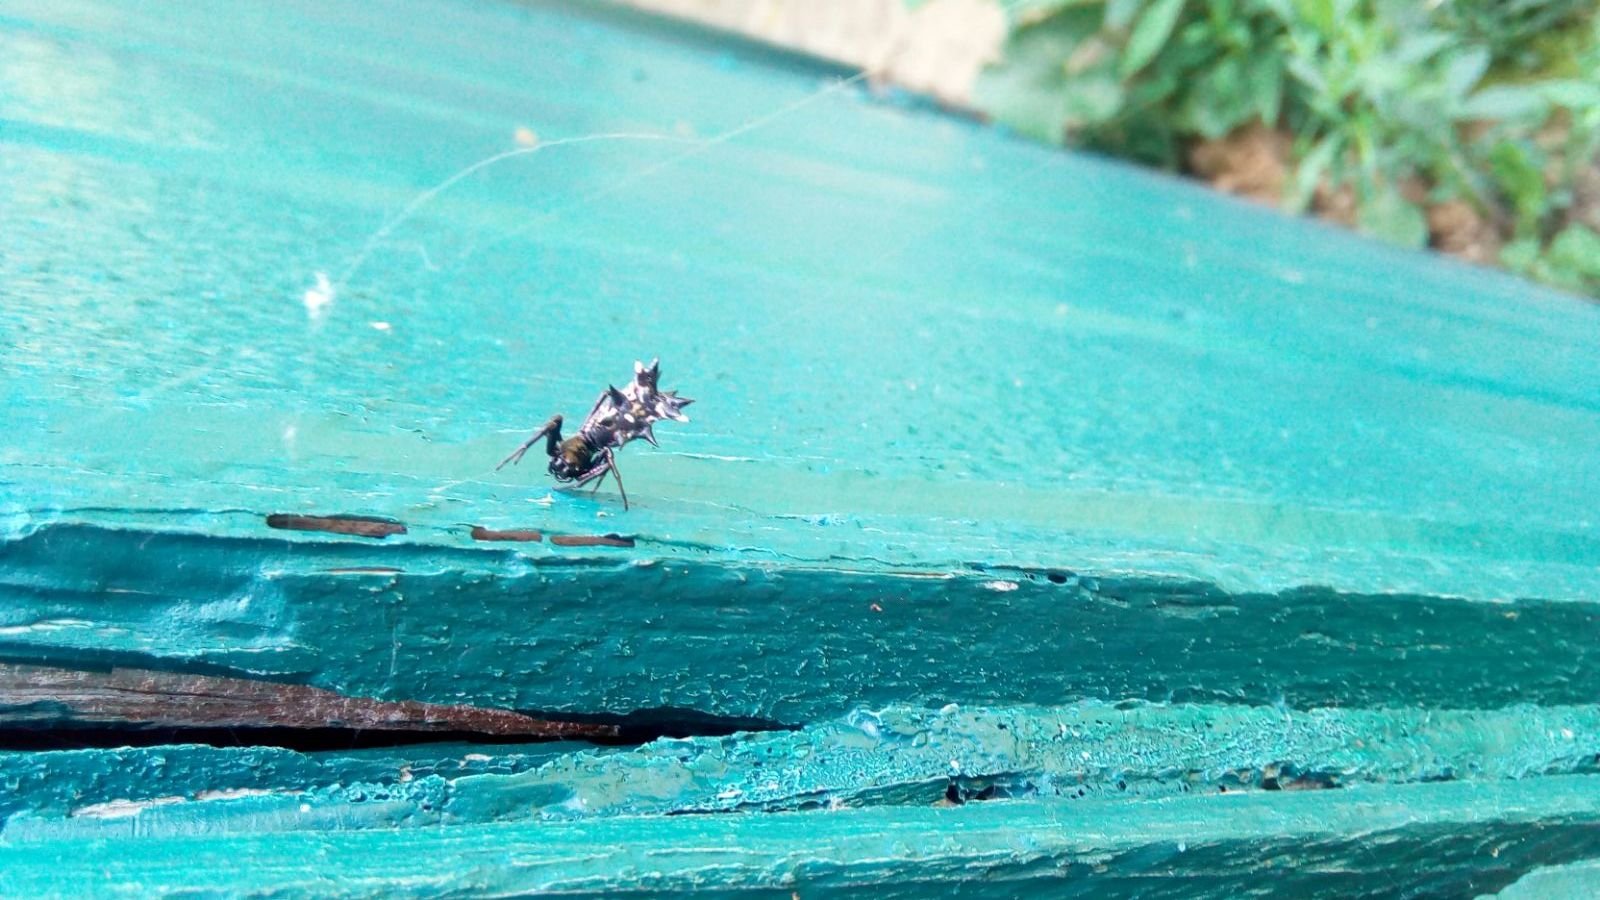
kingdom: Animalia
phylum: Arthropoda
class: Arachnida
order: Araneae
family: Araneidae
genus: Micrathena
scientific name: Micrathena gracilis
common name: Orb weavers
